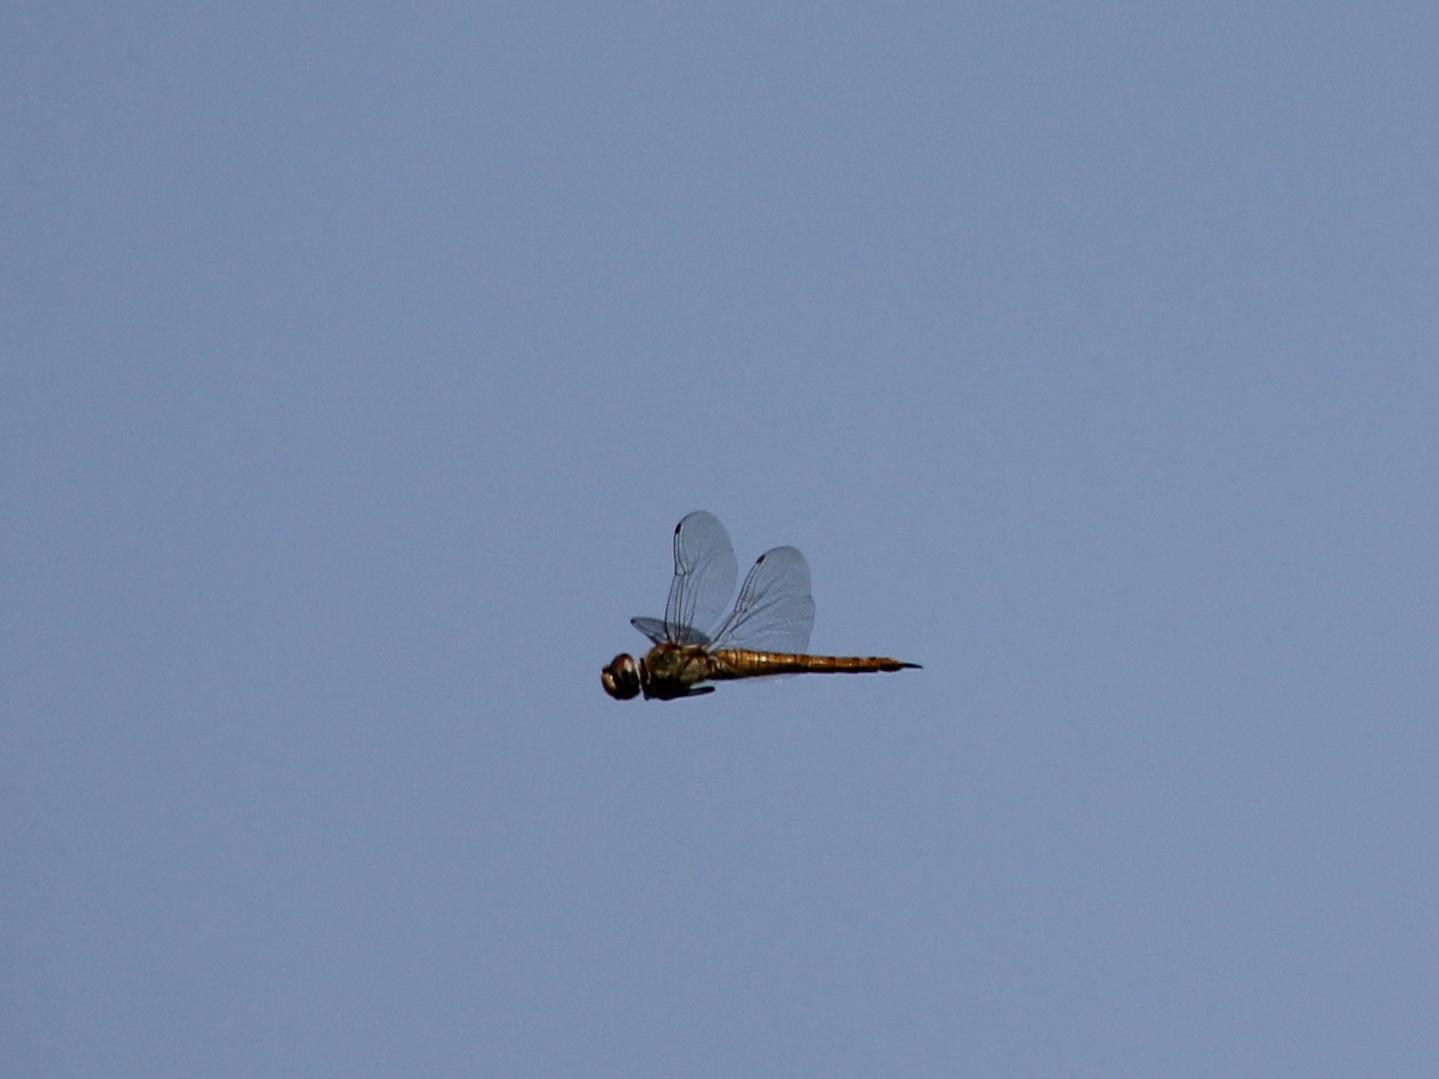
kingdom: Animalia
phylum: Arthropoda
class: Insecta
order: Odonata
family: Libellulidae
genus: Pantala
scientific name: Pantala flavescens
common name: Wandering glider
